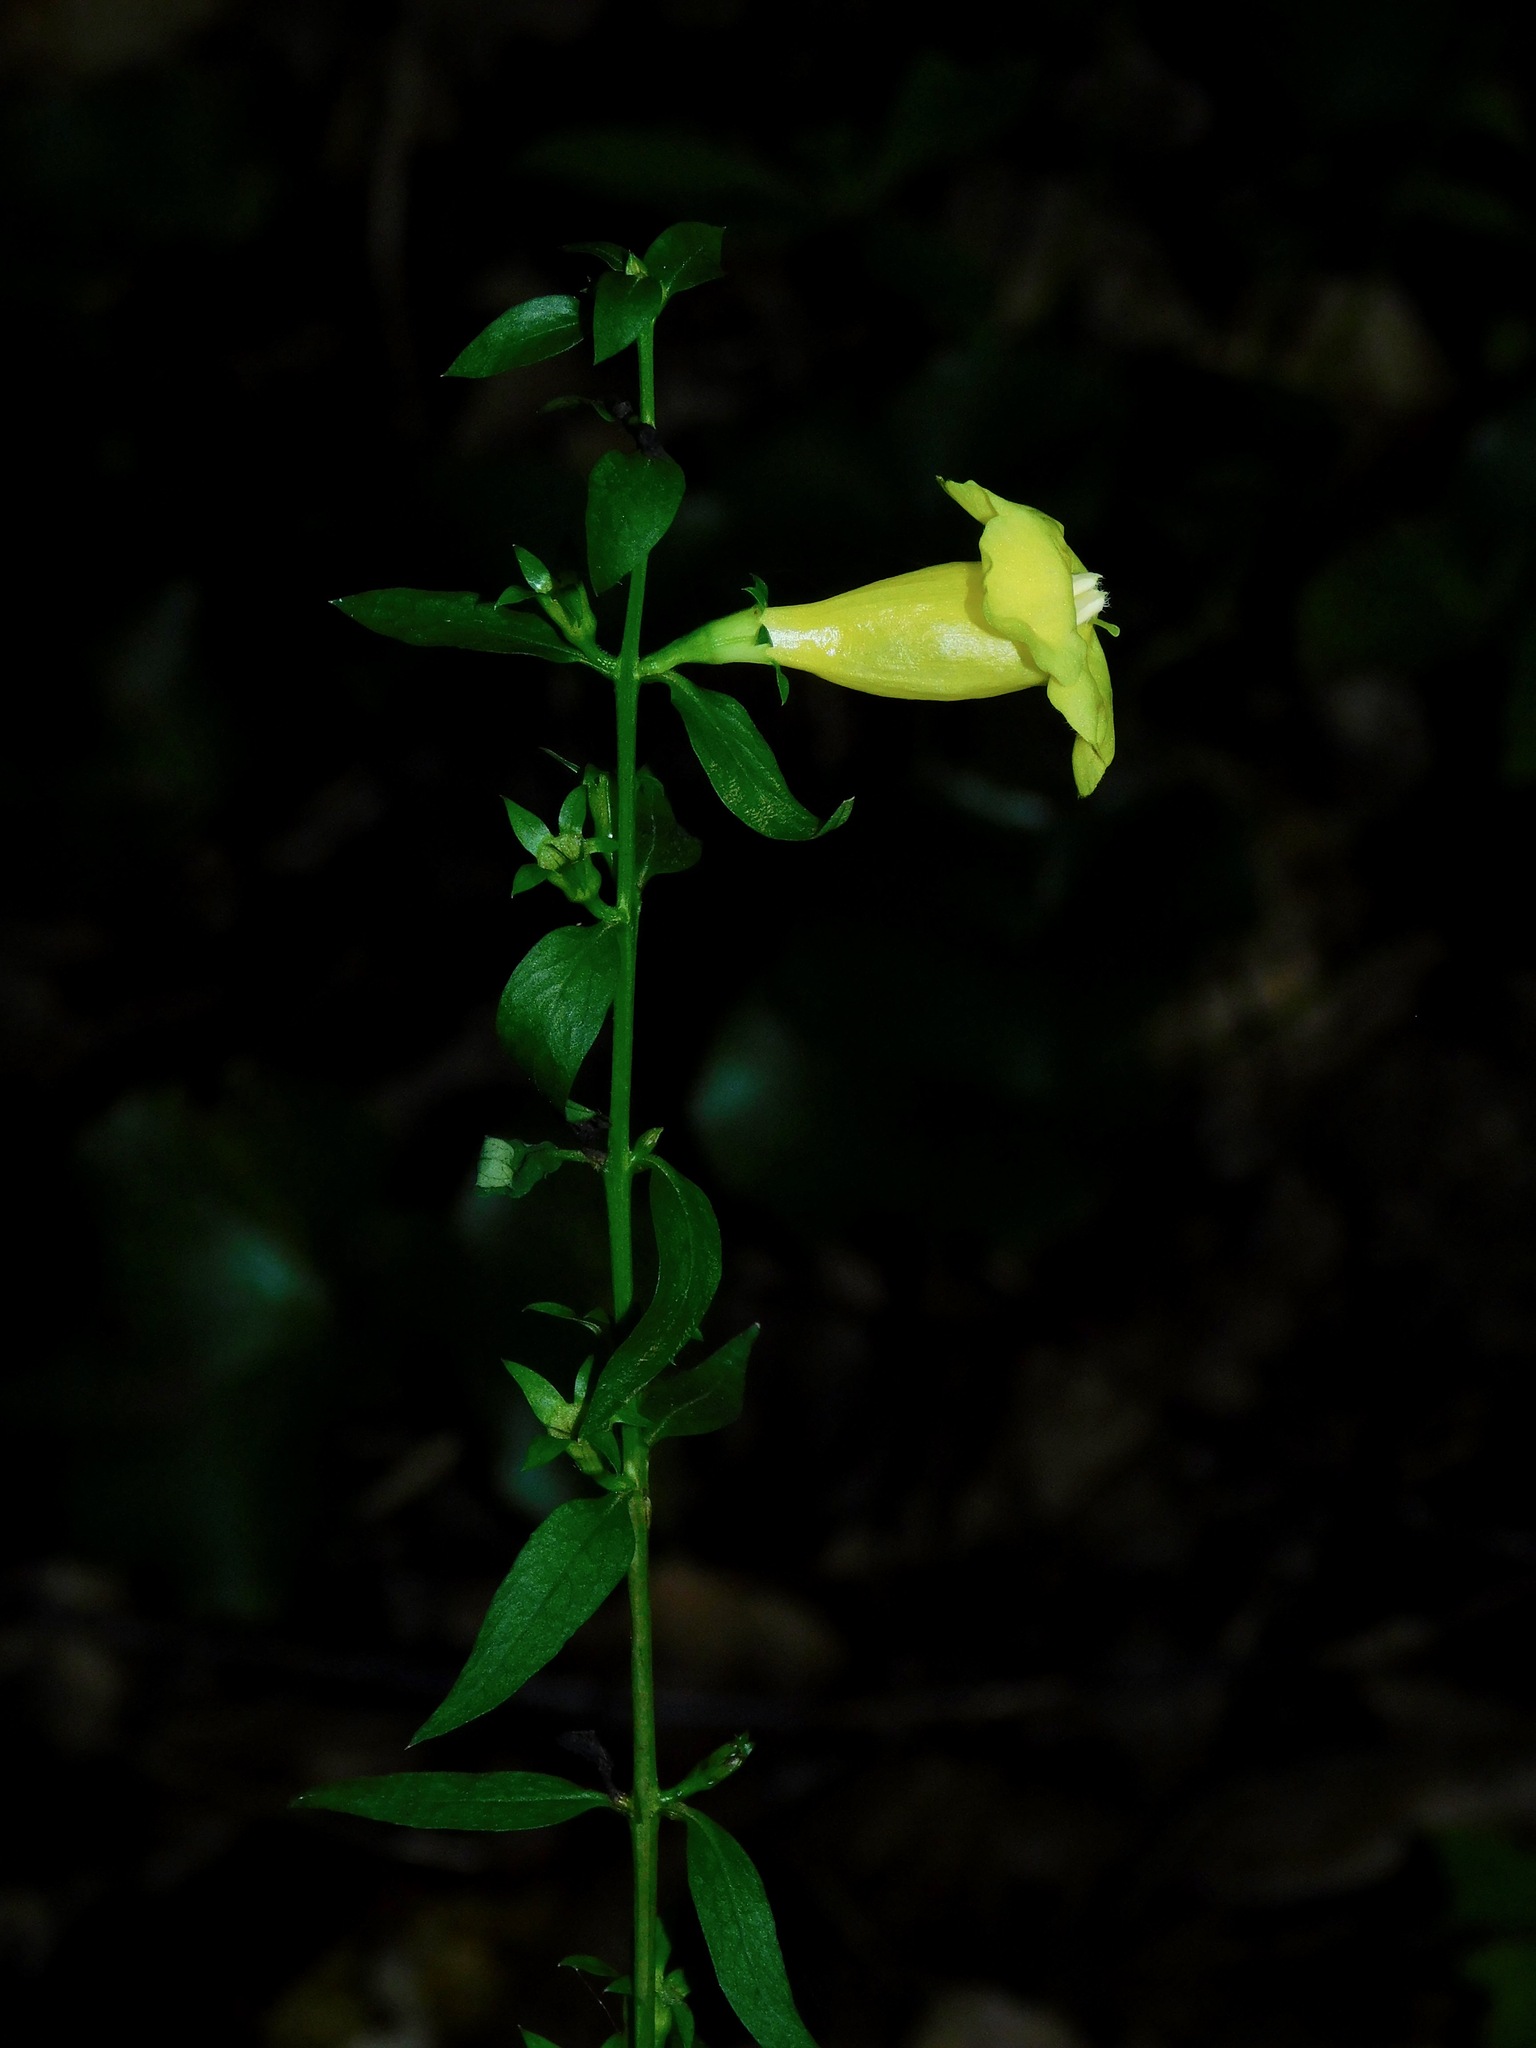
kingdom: Plantae
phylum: Tracheophyta
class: Magnoliopsida
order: Lamiales
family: Orobanchaceae
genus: Aureolaria
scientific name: Aureolaria levigata
